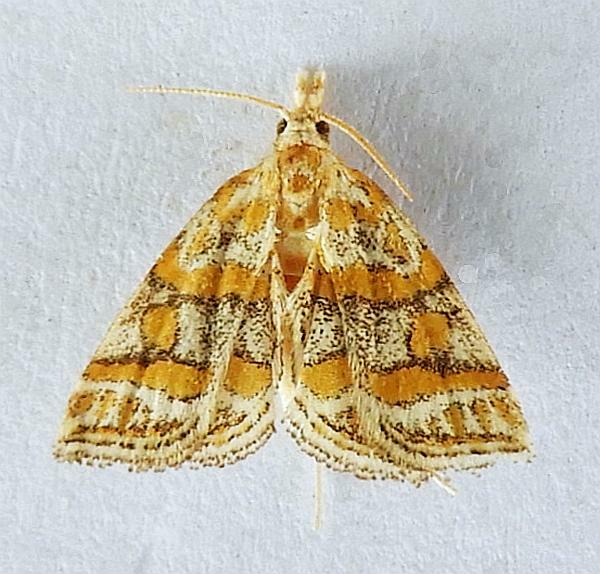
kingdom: Animalia
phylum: Arthropoda
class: Insecta
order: Lepidoptera
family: Crambidae
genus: Leptosteges
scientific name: Leptosteges flavifascialis
